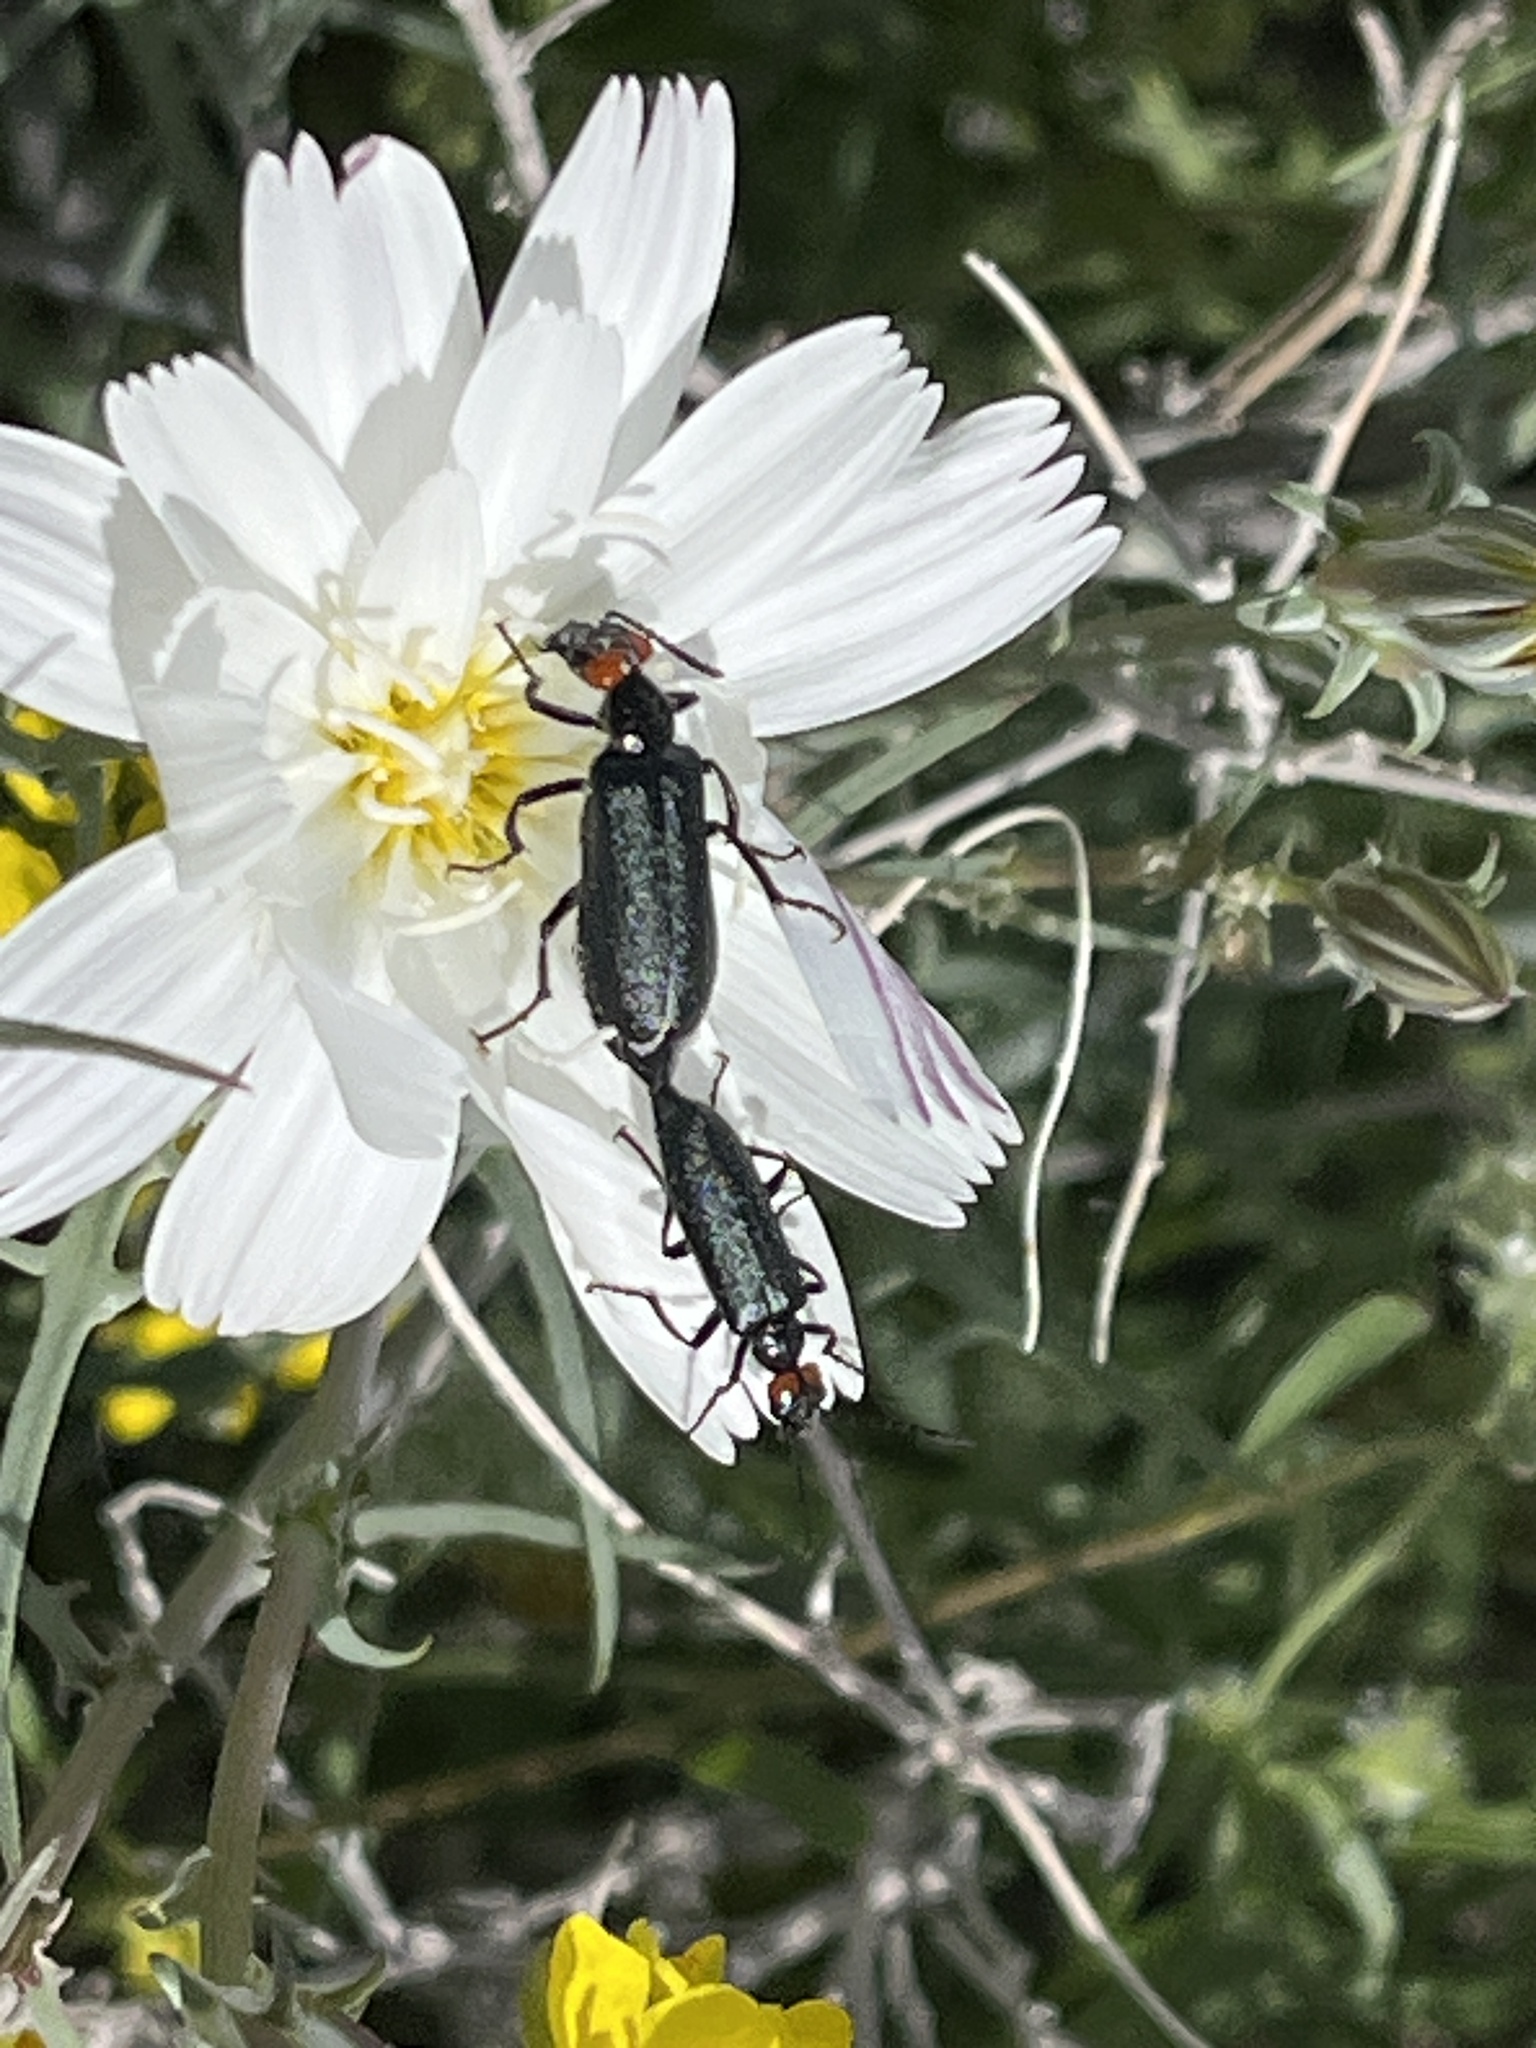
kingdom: Animalia
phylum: Arthropoda
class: Insecta
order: Coleoptera
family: Meloidae
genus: Lytta
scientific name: Lytta auriculata
